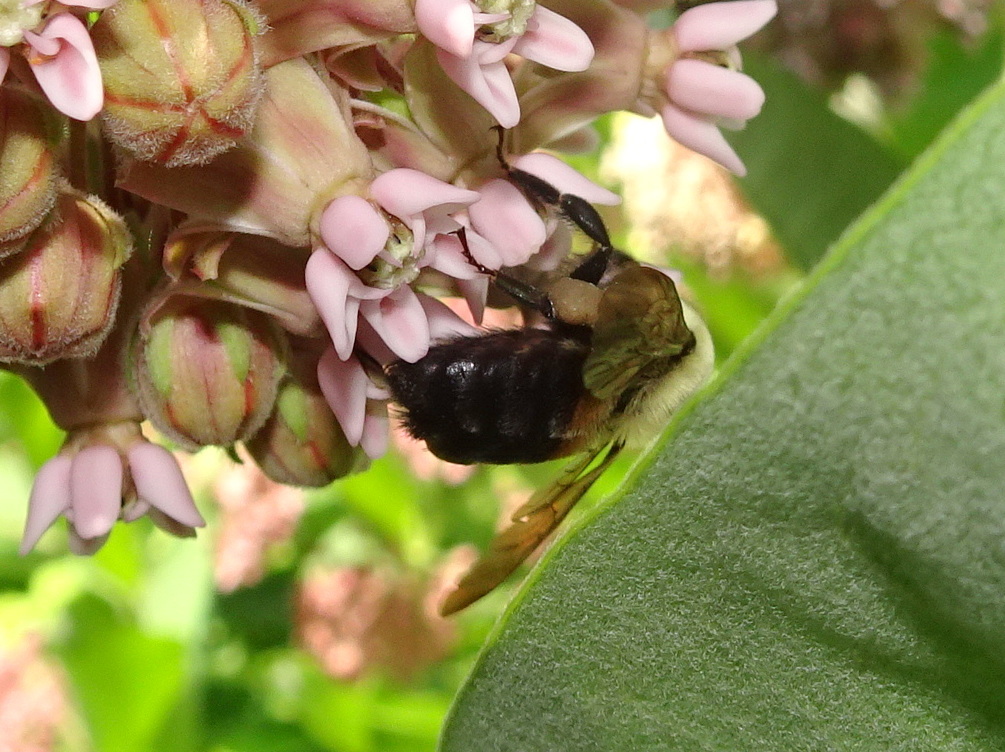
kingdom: Animalia
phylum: Arthropoda
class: Insecta
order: Hymenoptera
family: Apidae
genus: Bombus
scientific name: Bombus griseocollis
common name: Brown-belted bumble bee
